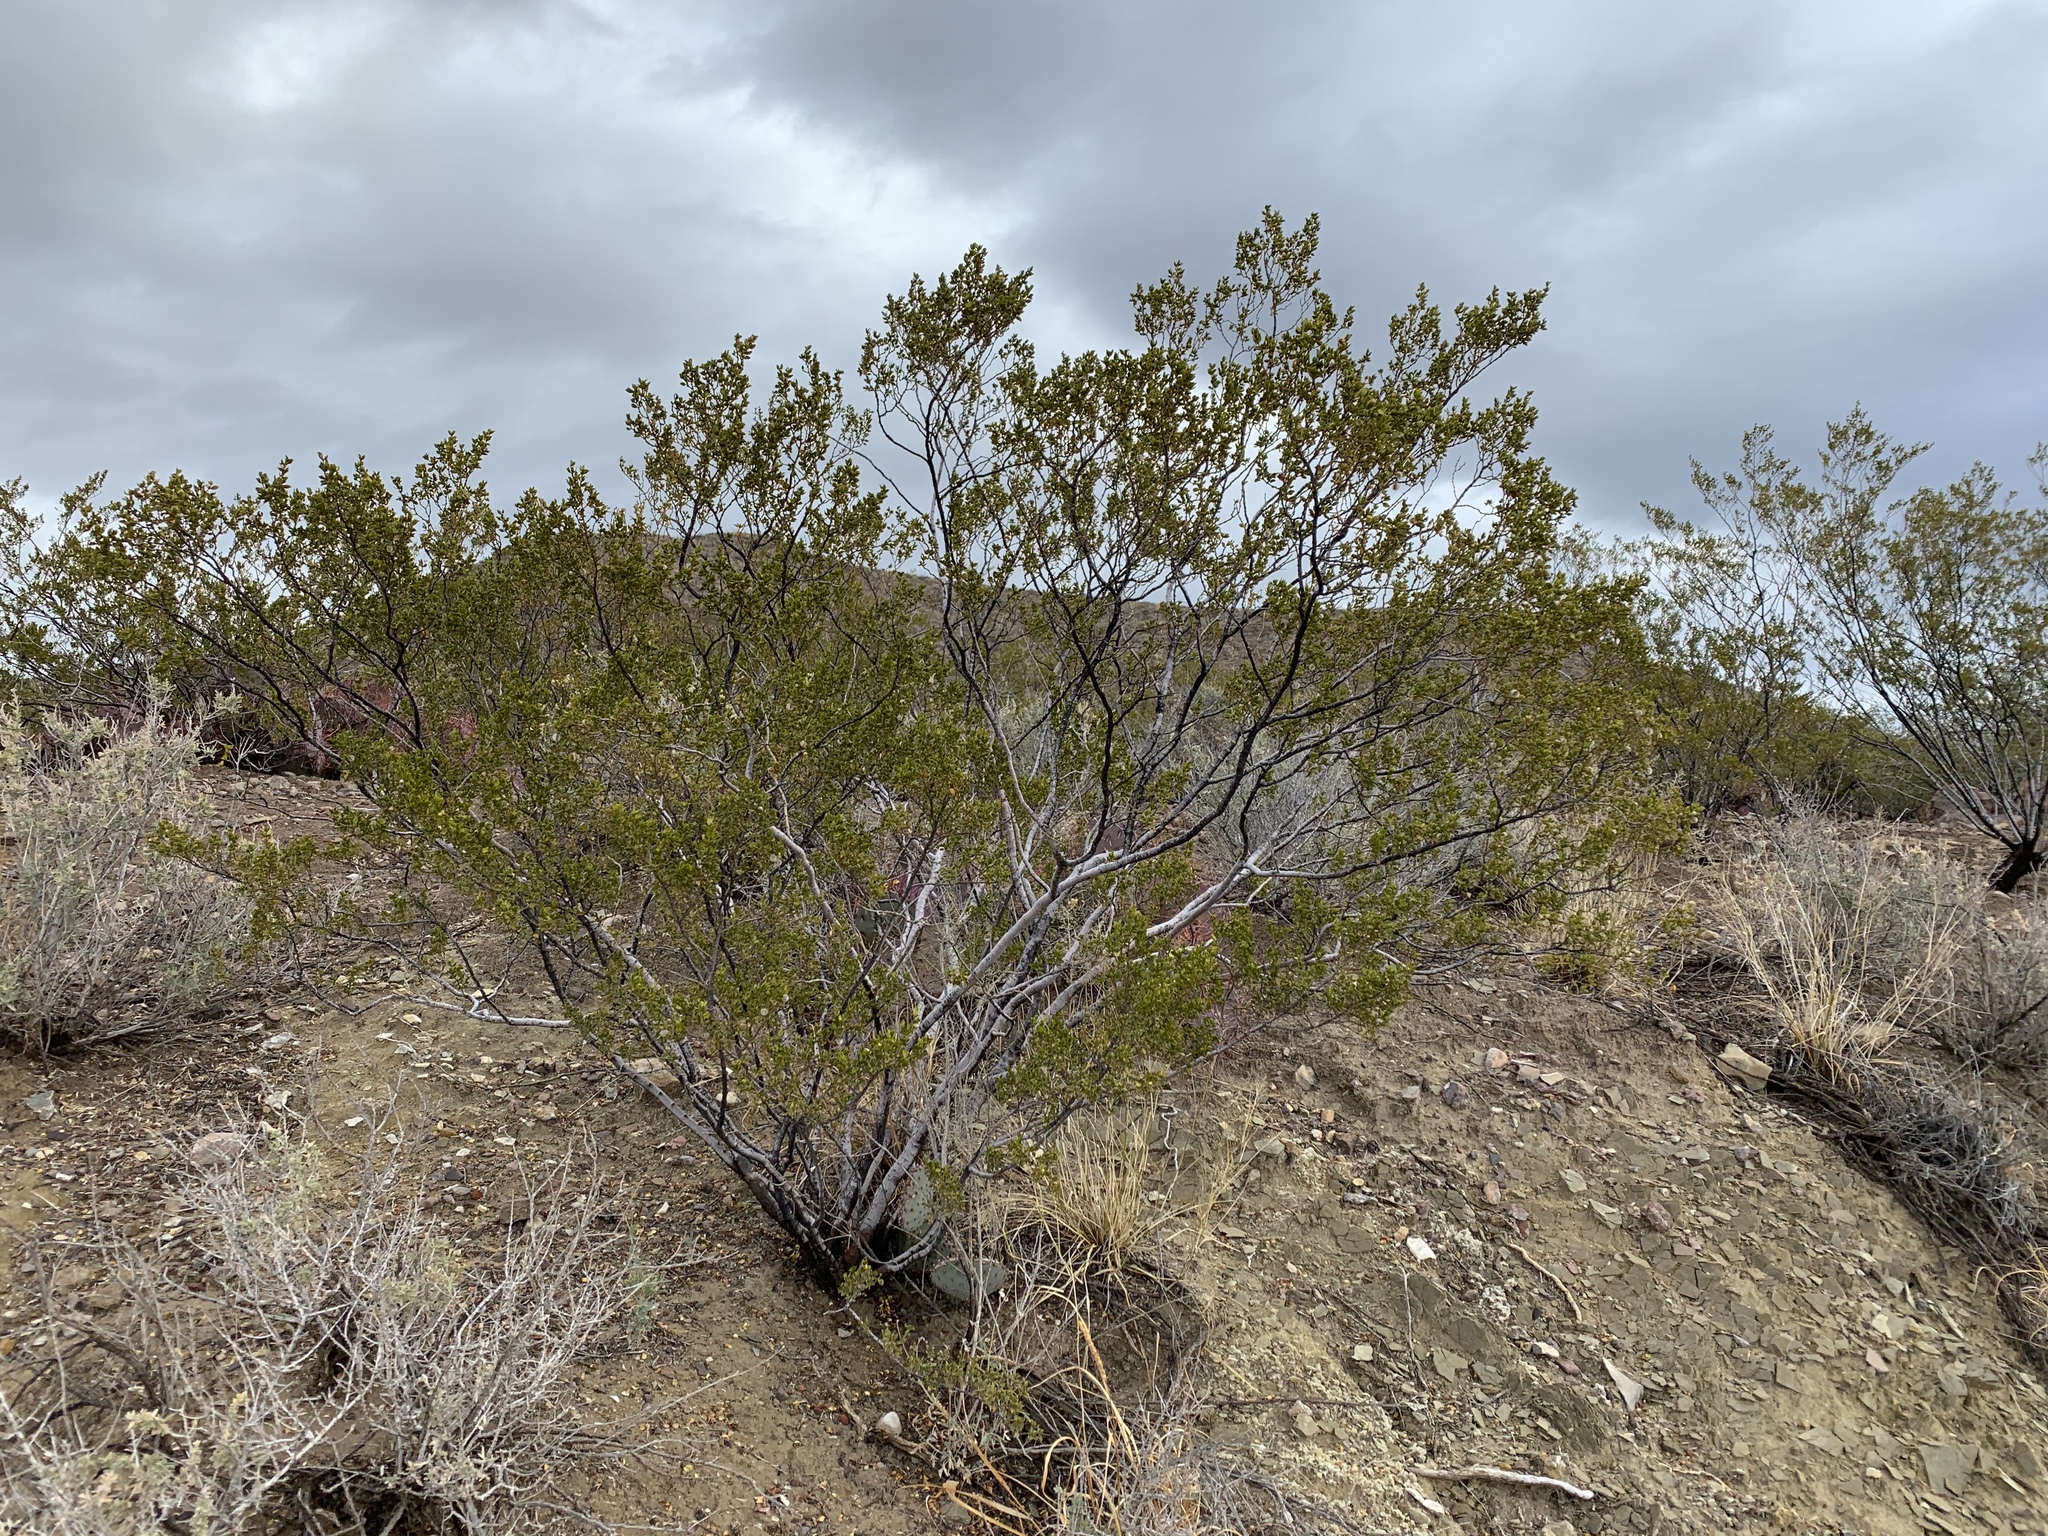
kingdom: Plantae
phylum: Tracheophyta
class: Magnoliopsida
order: Zygophyllales
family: Zygophyllaceae
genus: Larrea
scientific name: Larrea tridentata
